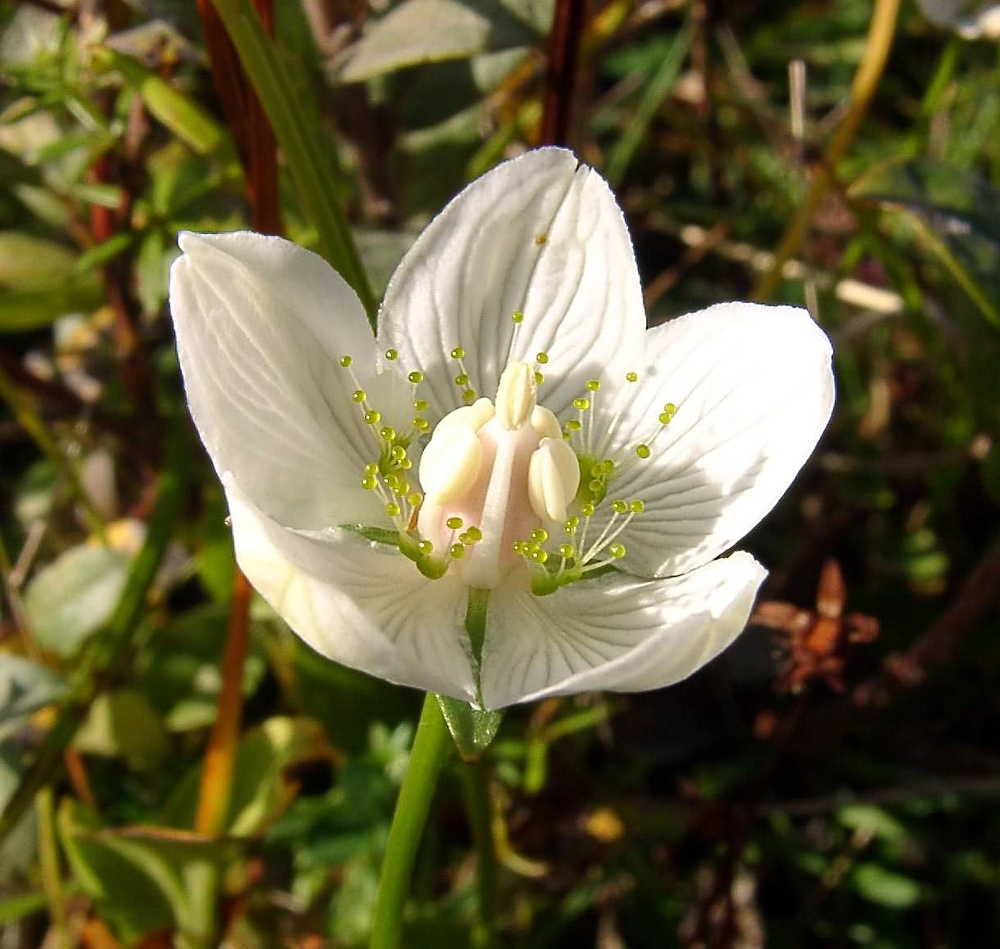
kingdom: Plantae
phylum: Tracheophyta
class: Magnoliopsida
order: Celastrales
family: Parnassiaceae
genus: Parnassia
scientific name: Parnassia palustris
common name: Grass-of-parnassus
